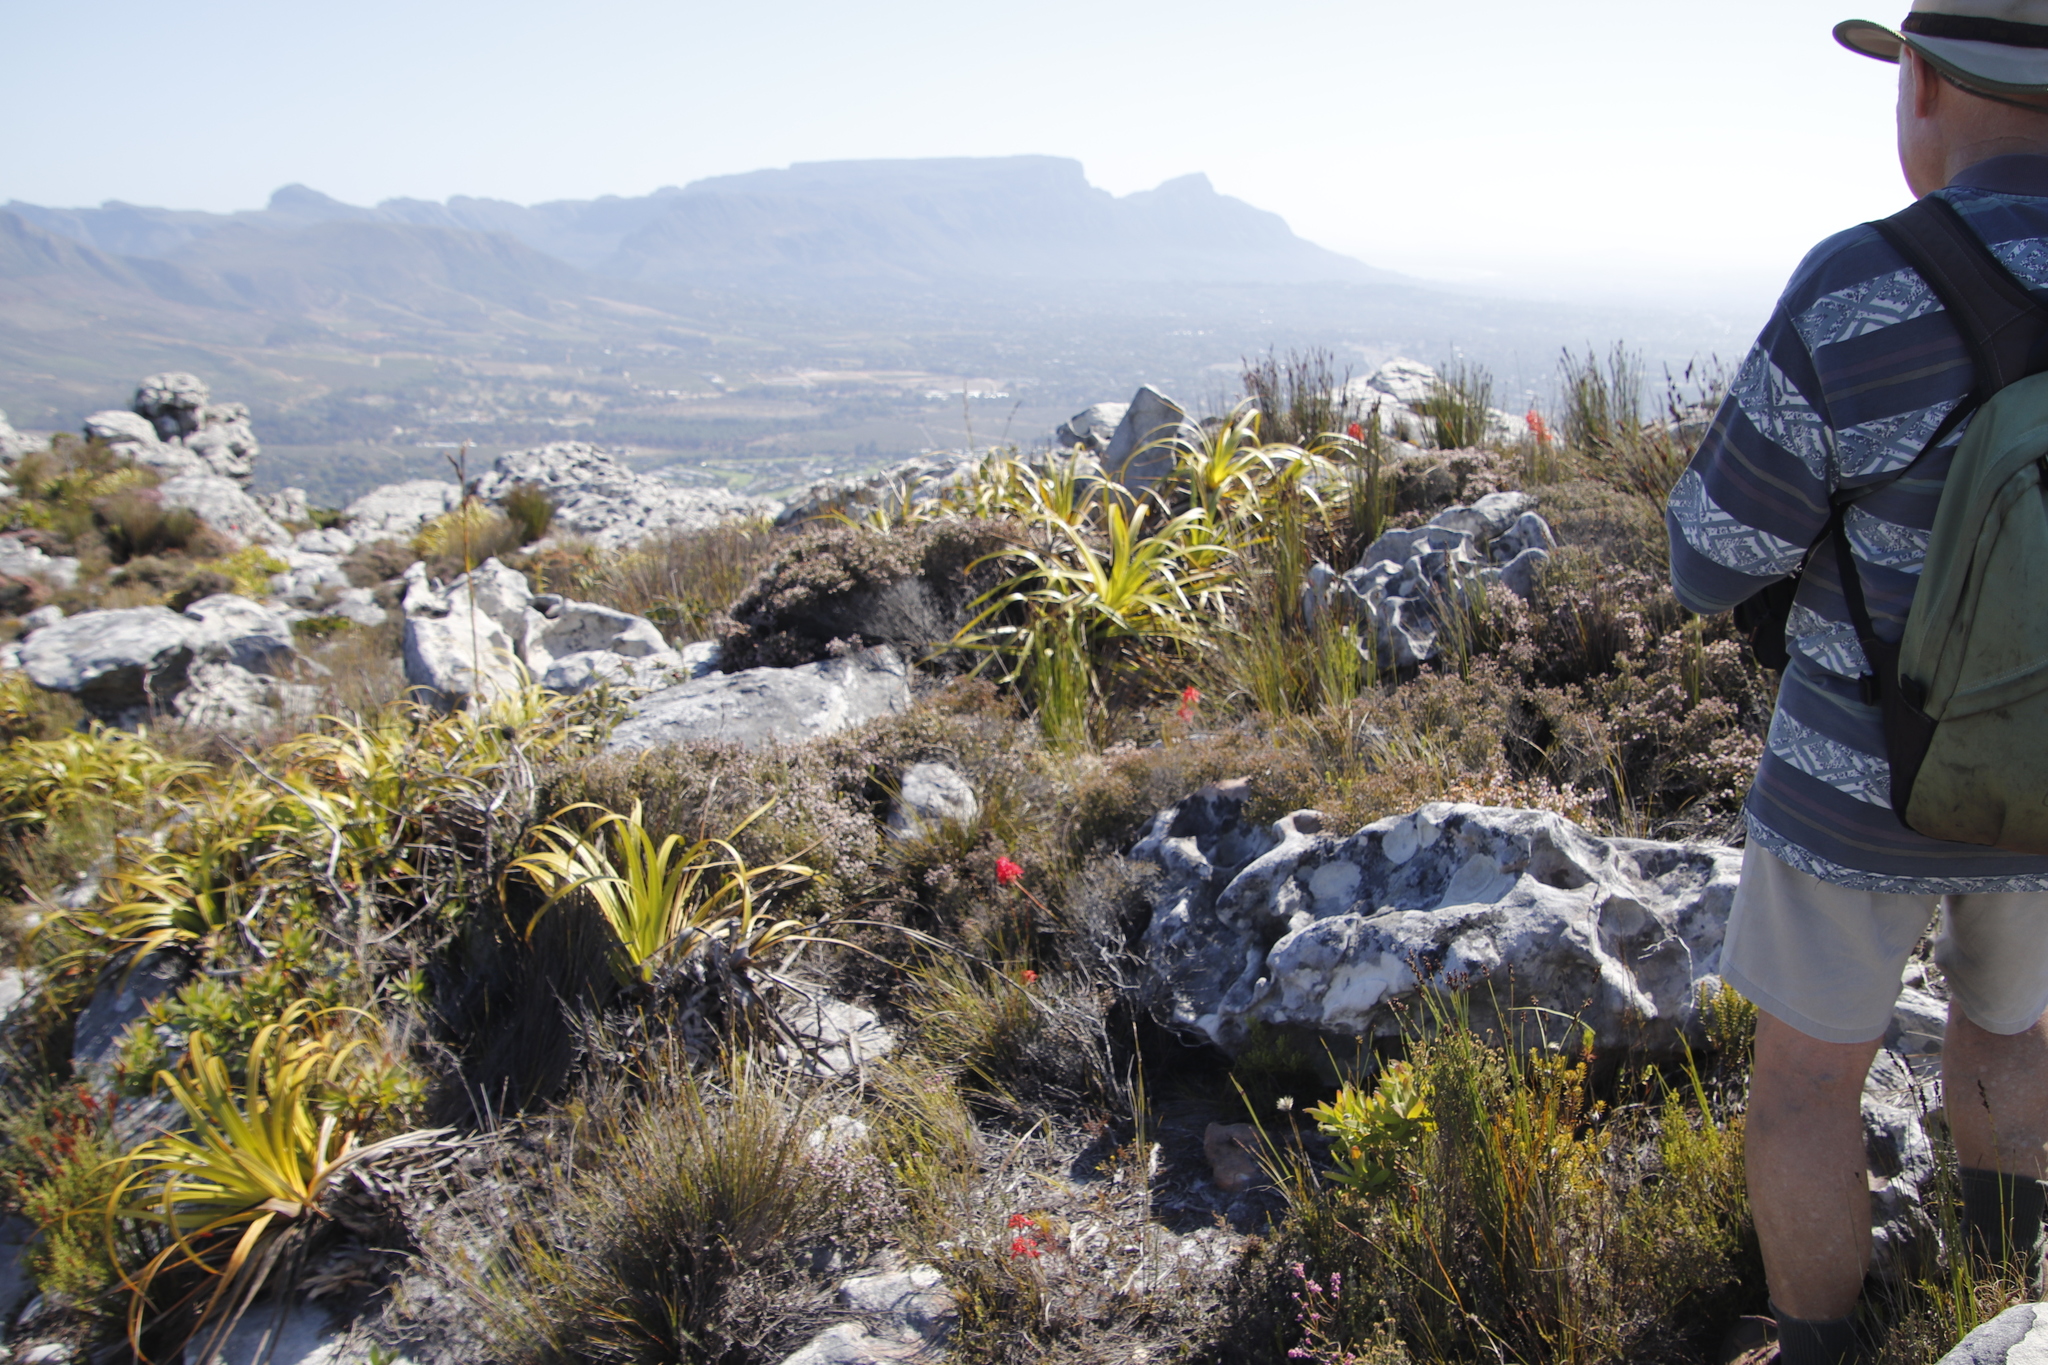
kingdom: Plantae
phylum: Tracheophyta
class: Liliopsida
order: Asparagales
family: Orchidaceae
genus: Disa
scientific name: Disa ferruginea
